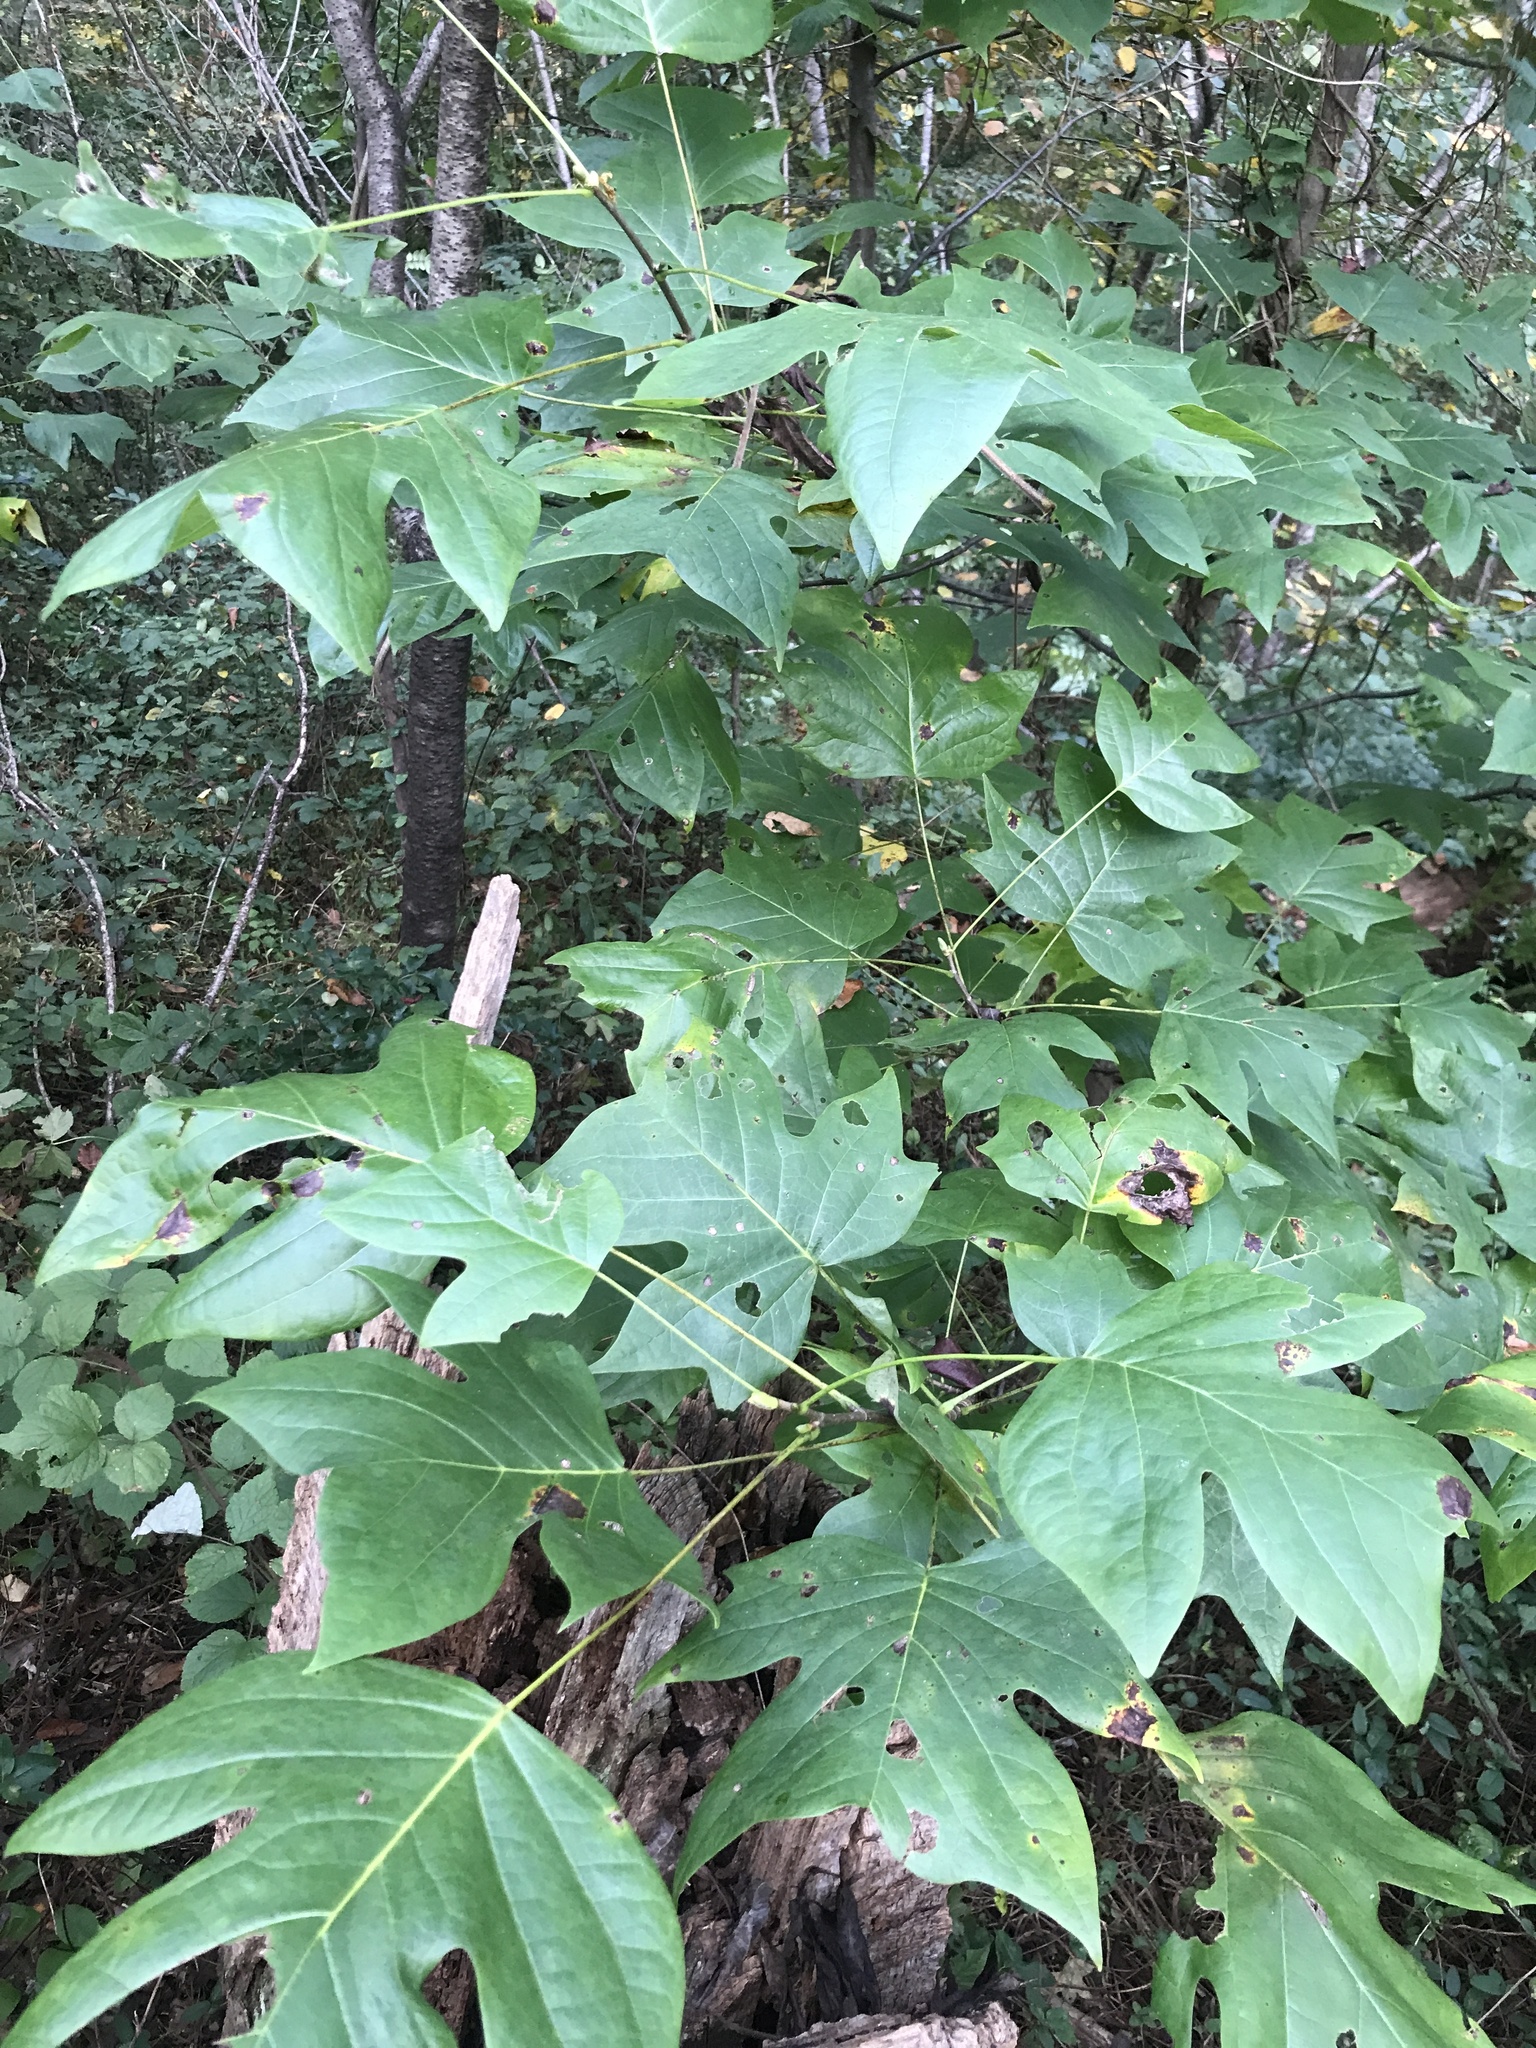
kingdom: Plantae
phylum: Tracheophyta
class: Magnoliopsida
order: Magnoliales
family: Magnoliaceae
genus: Liriodendron
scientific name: Liriodendron tulipifera
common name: Tulip tree
